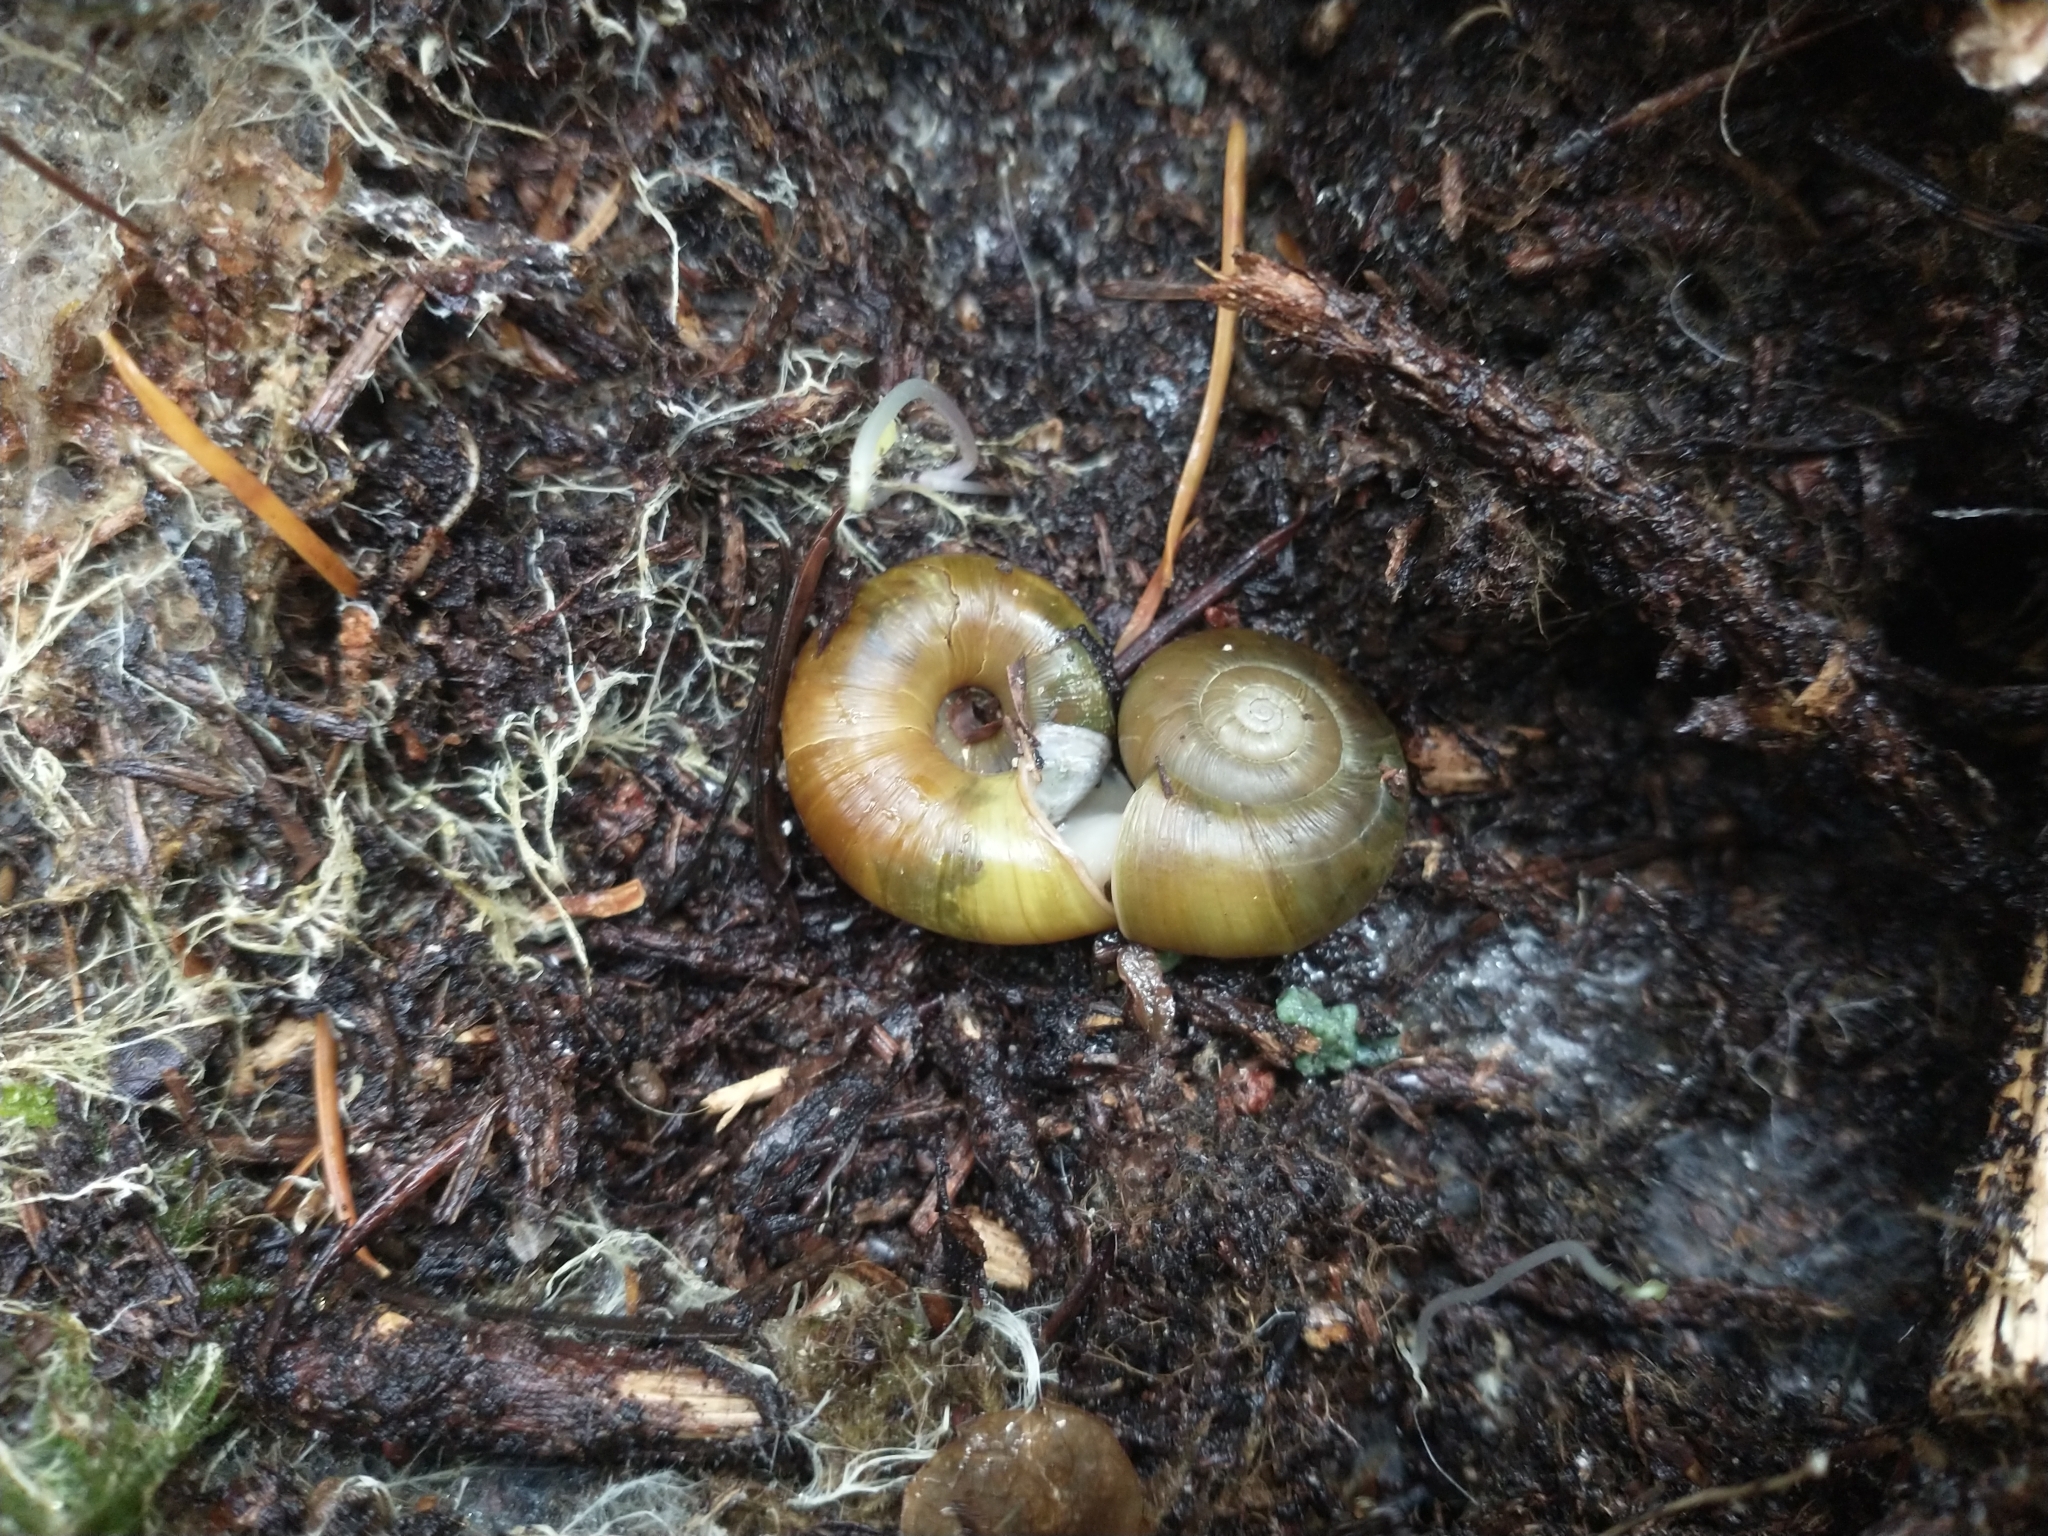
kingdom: Animalia
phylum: Mollusca
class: Gastropoda
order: Stylommatophora
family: Haplotrematidae
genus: Haplotrema
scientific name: Haplotrema vancouverense
